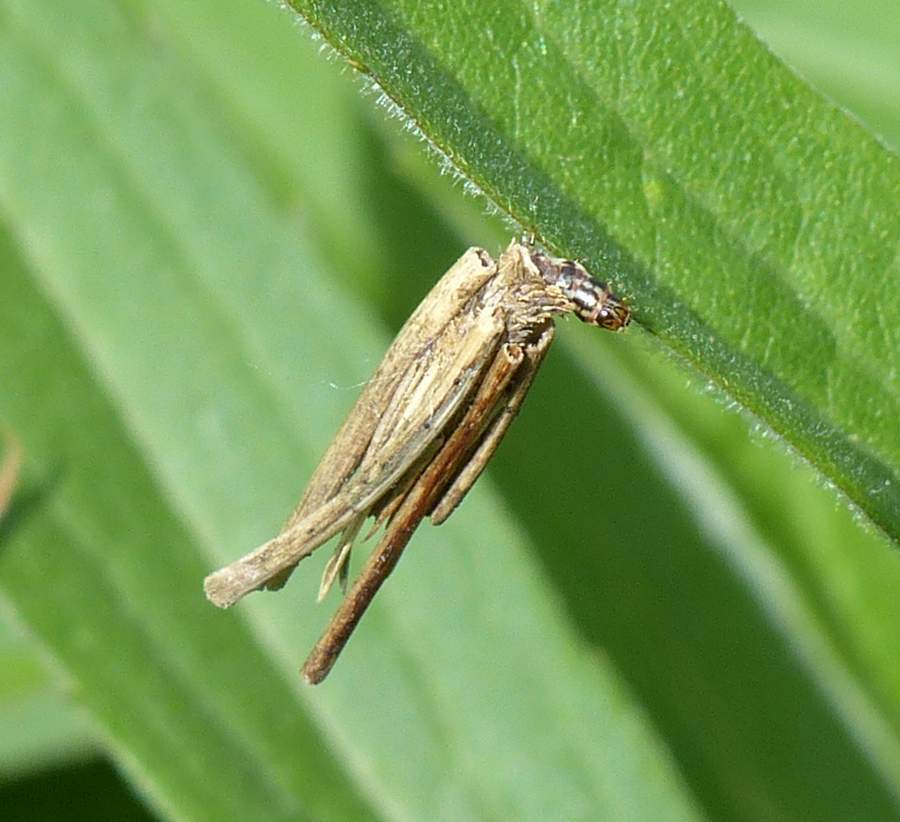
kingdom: Animalia
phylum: Arthropoda
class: Insecta
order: Lepidoptera
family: Psychidae
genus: Psyche
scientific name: Psyche casta
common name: Common sweep
